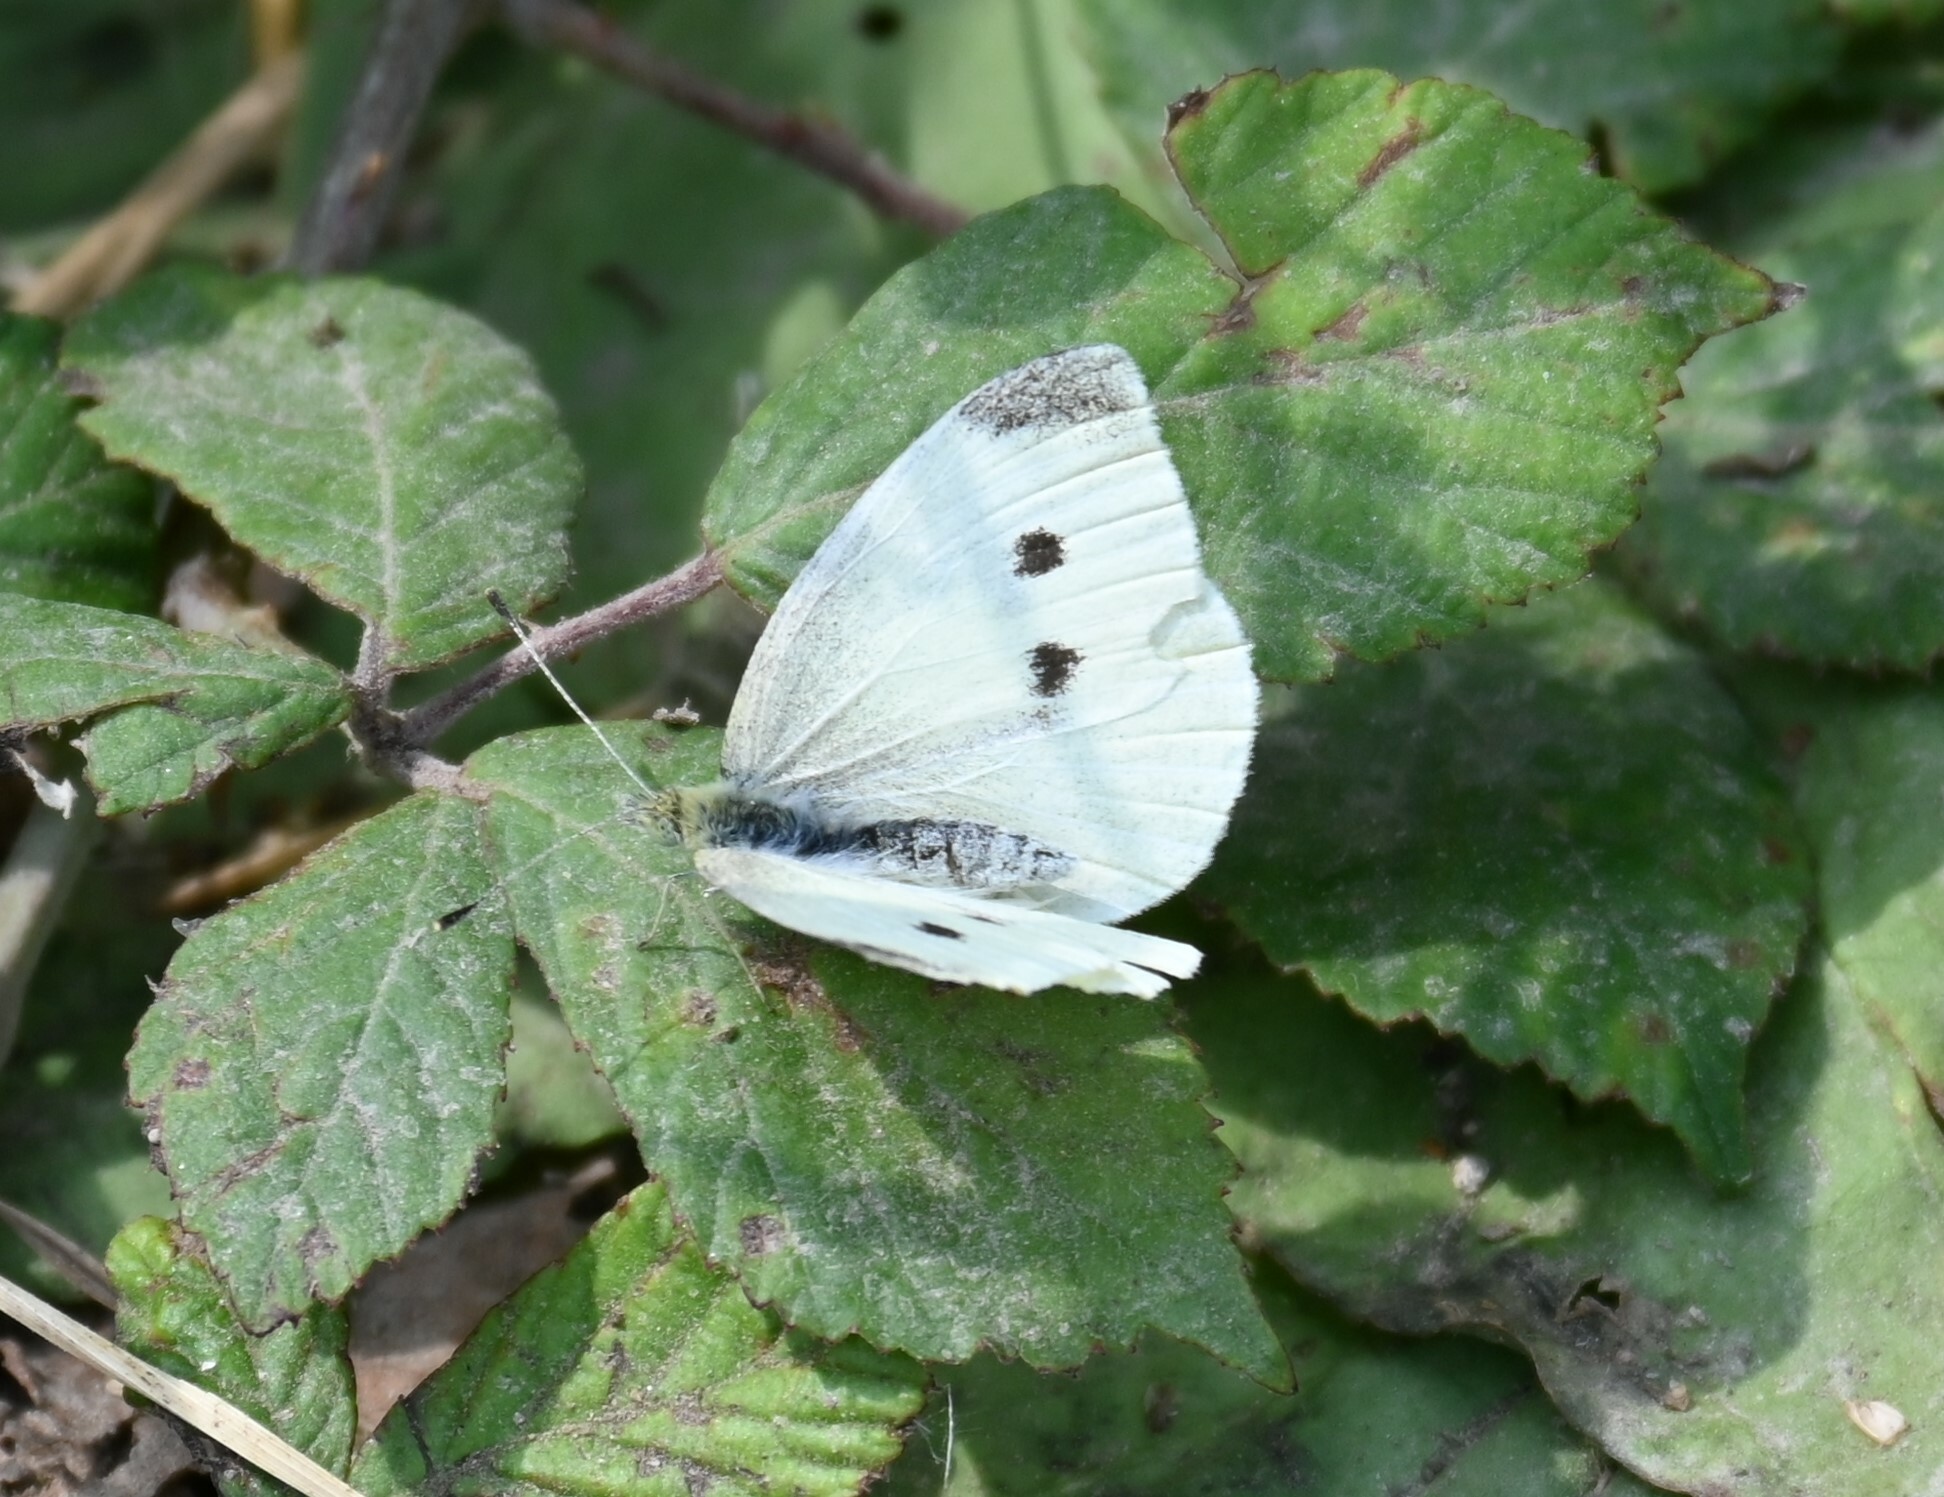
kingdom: Animalia
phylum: Arthropoda
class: Insecta
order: Lepidoptera
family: Pieridae
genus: Pieris
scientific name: Pieris rapae
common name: Small white
